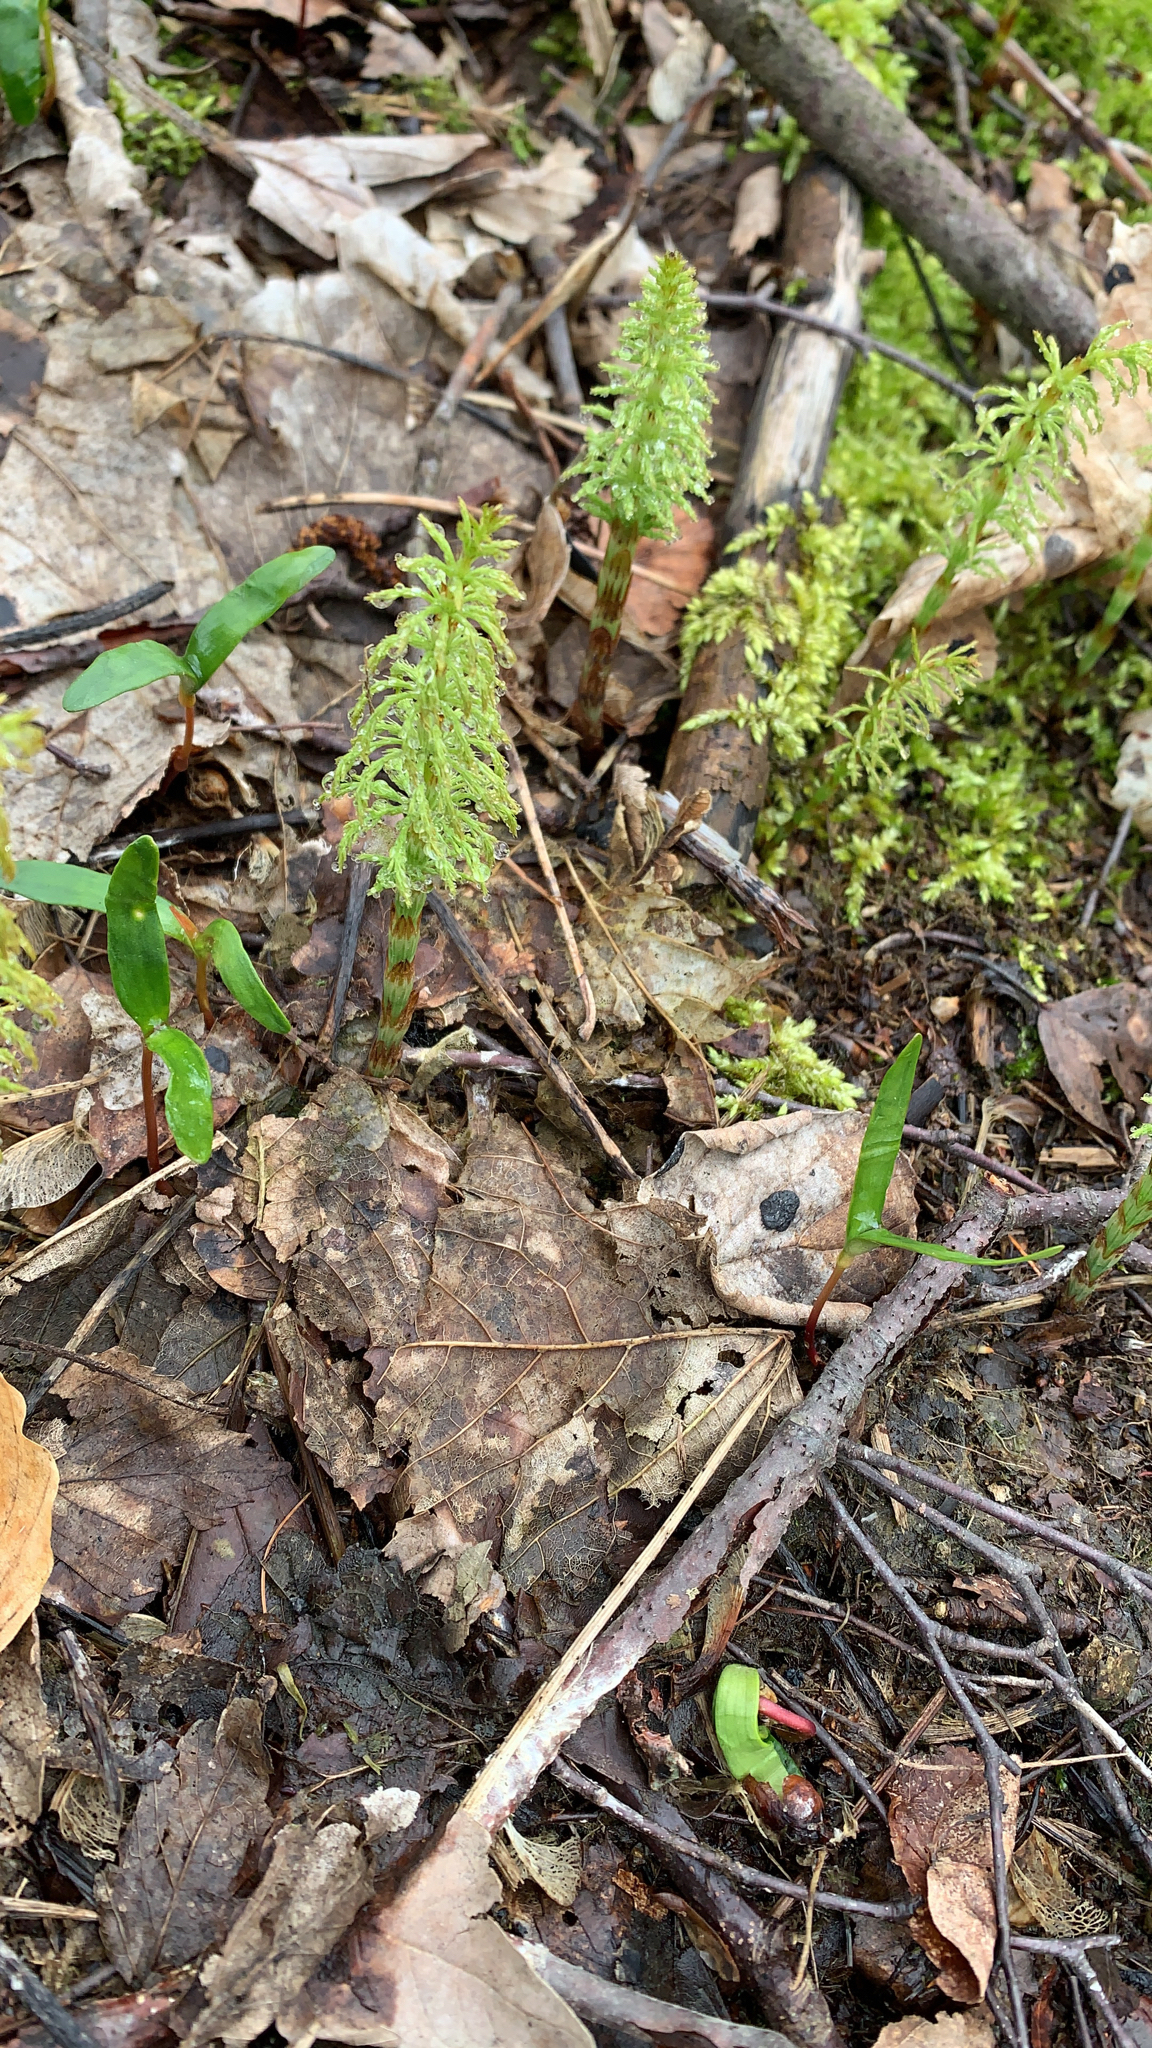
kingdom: Plantae
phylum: Tracheophyta
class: Polypodiopsida
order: Equisetales
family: Equisetaceae
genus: Equisetum
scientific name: Equisetum sylvaticum
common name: Wood horsetail
